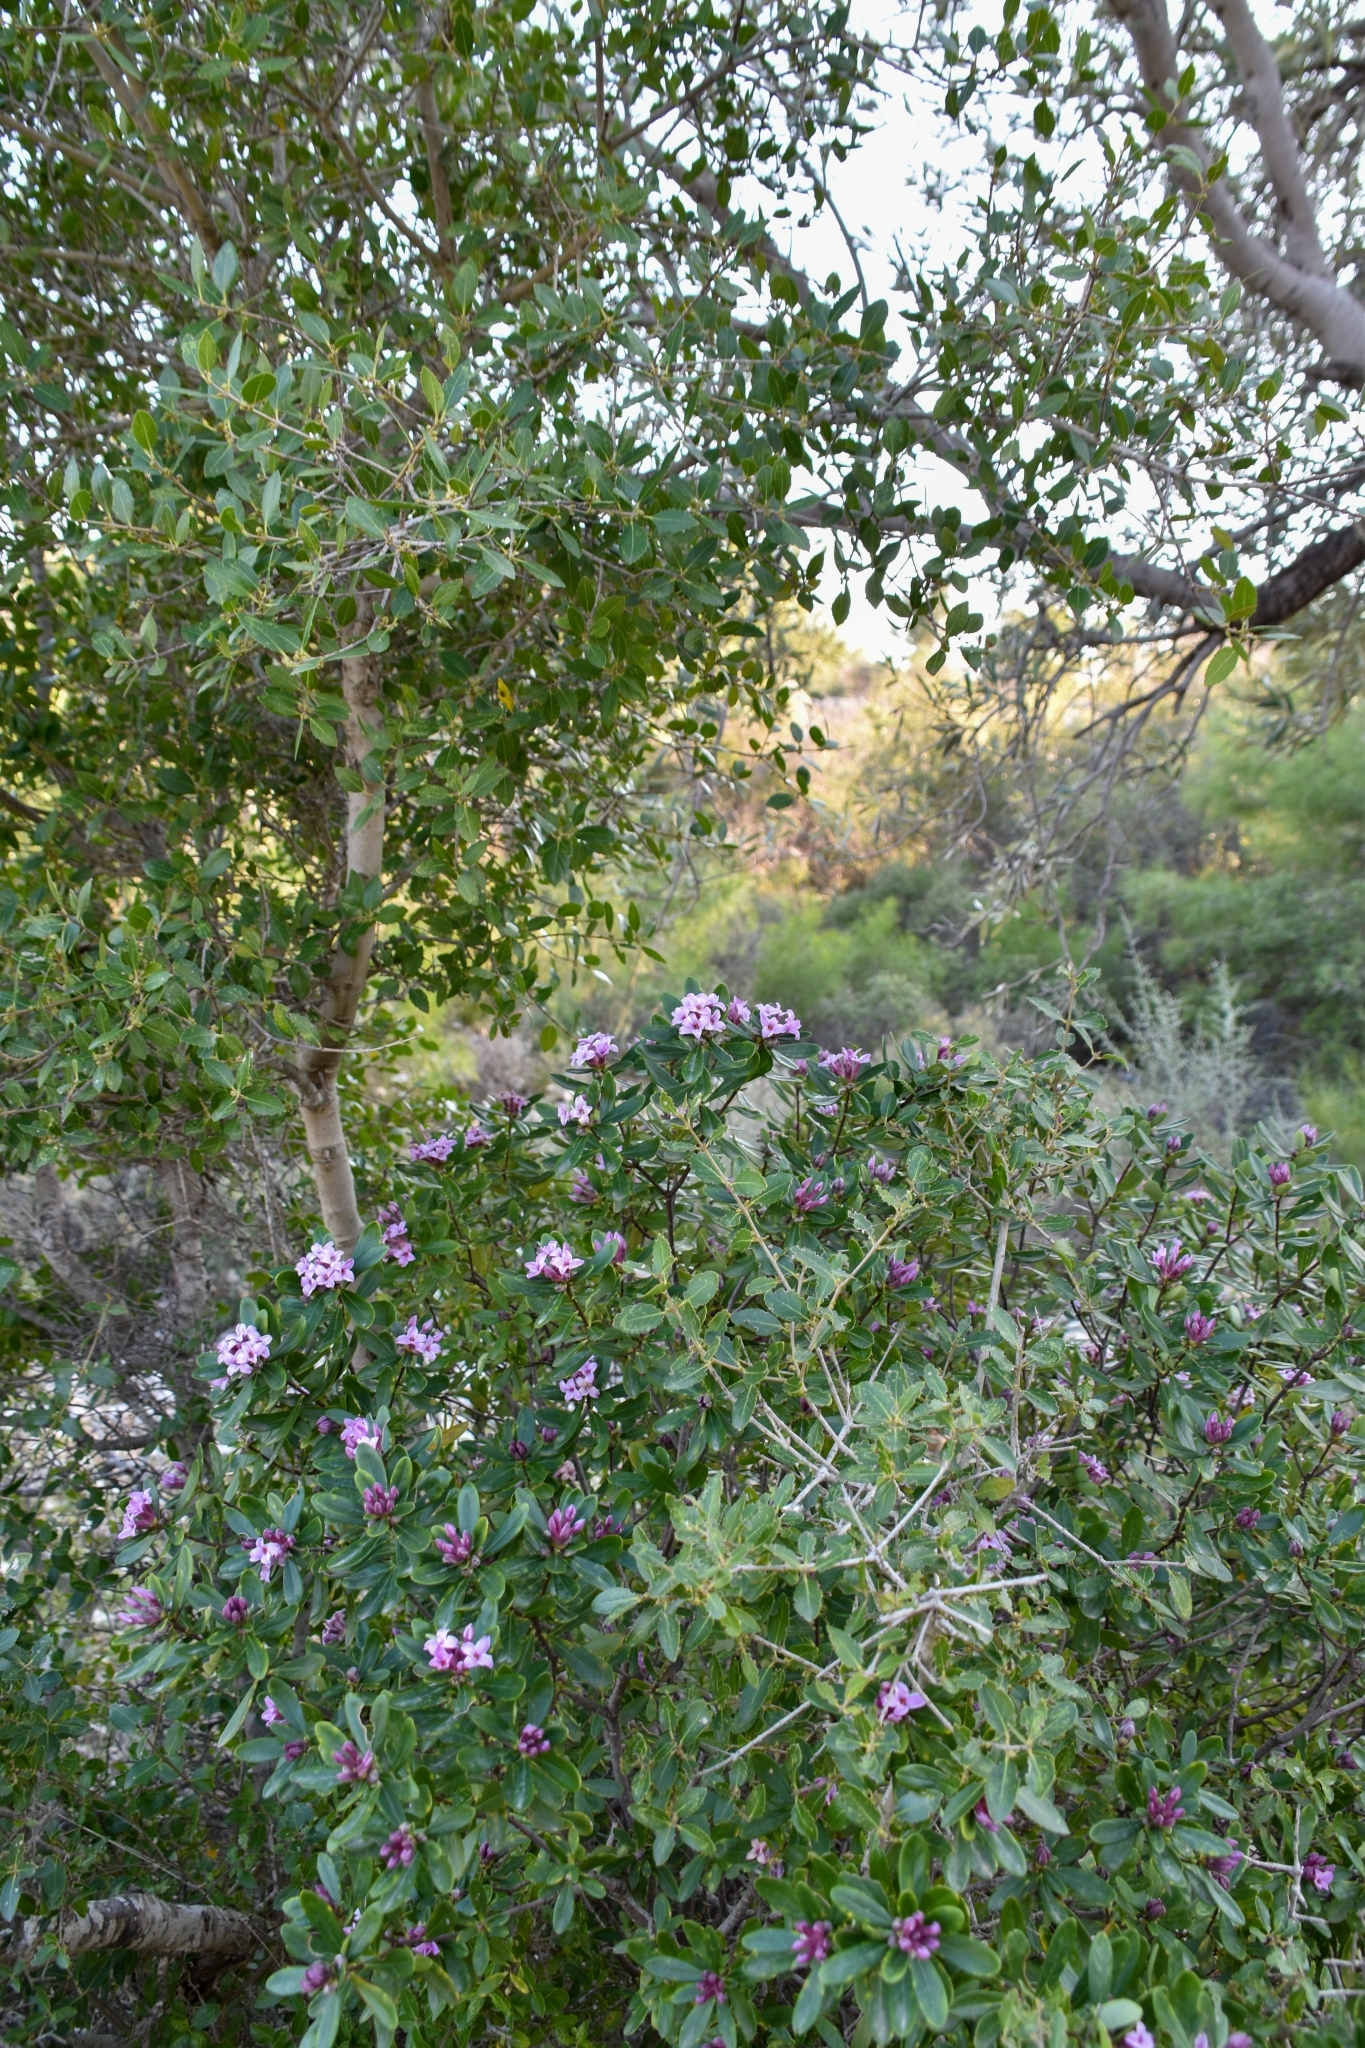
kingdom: Plantae
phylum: Tracheophyta
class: Magnoliopsida
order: Malvales
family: Thymelaeaceae
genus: Daphne
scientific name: Daphne sericea
